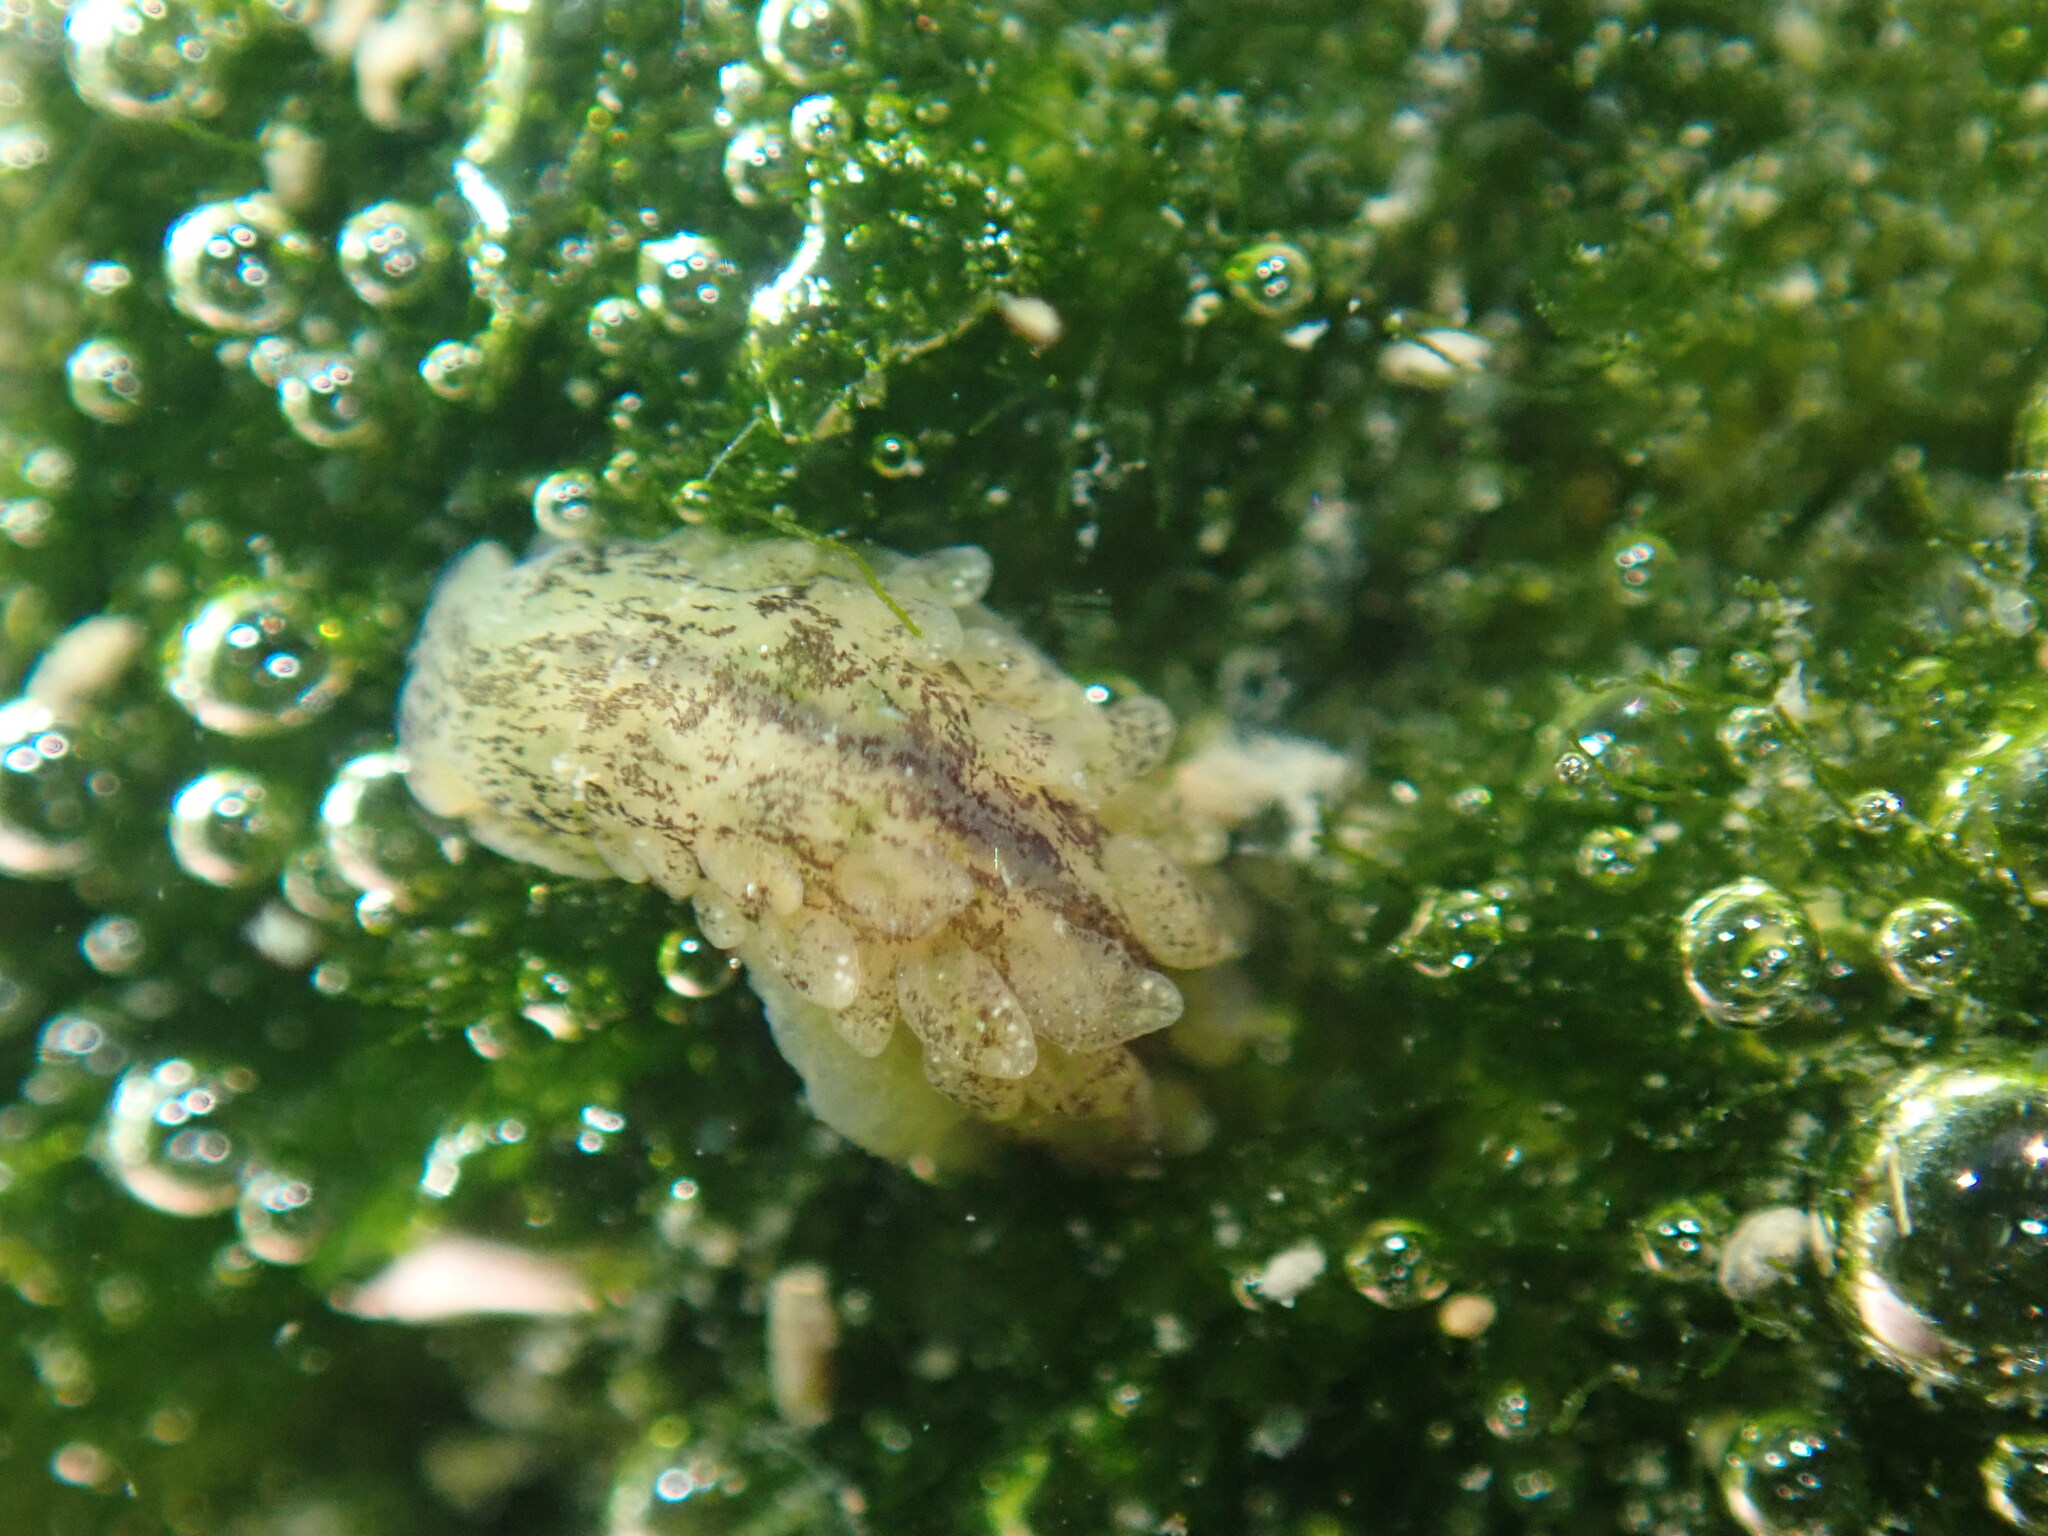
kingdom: Animalia
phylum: Mollusca
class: Gastropoda
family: Limapontiidae
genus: Alderia
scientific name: Alderia modesta
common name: Modest alderia
